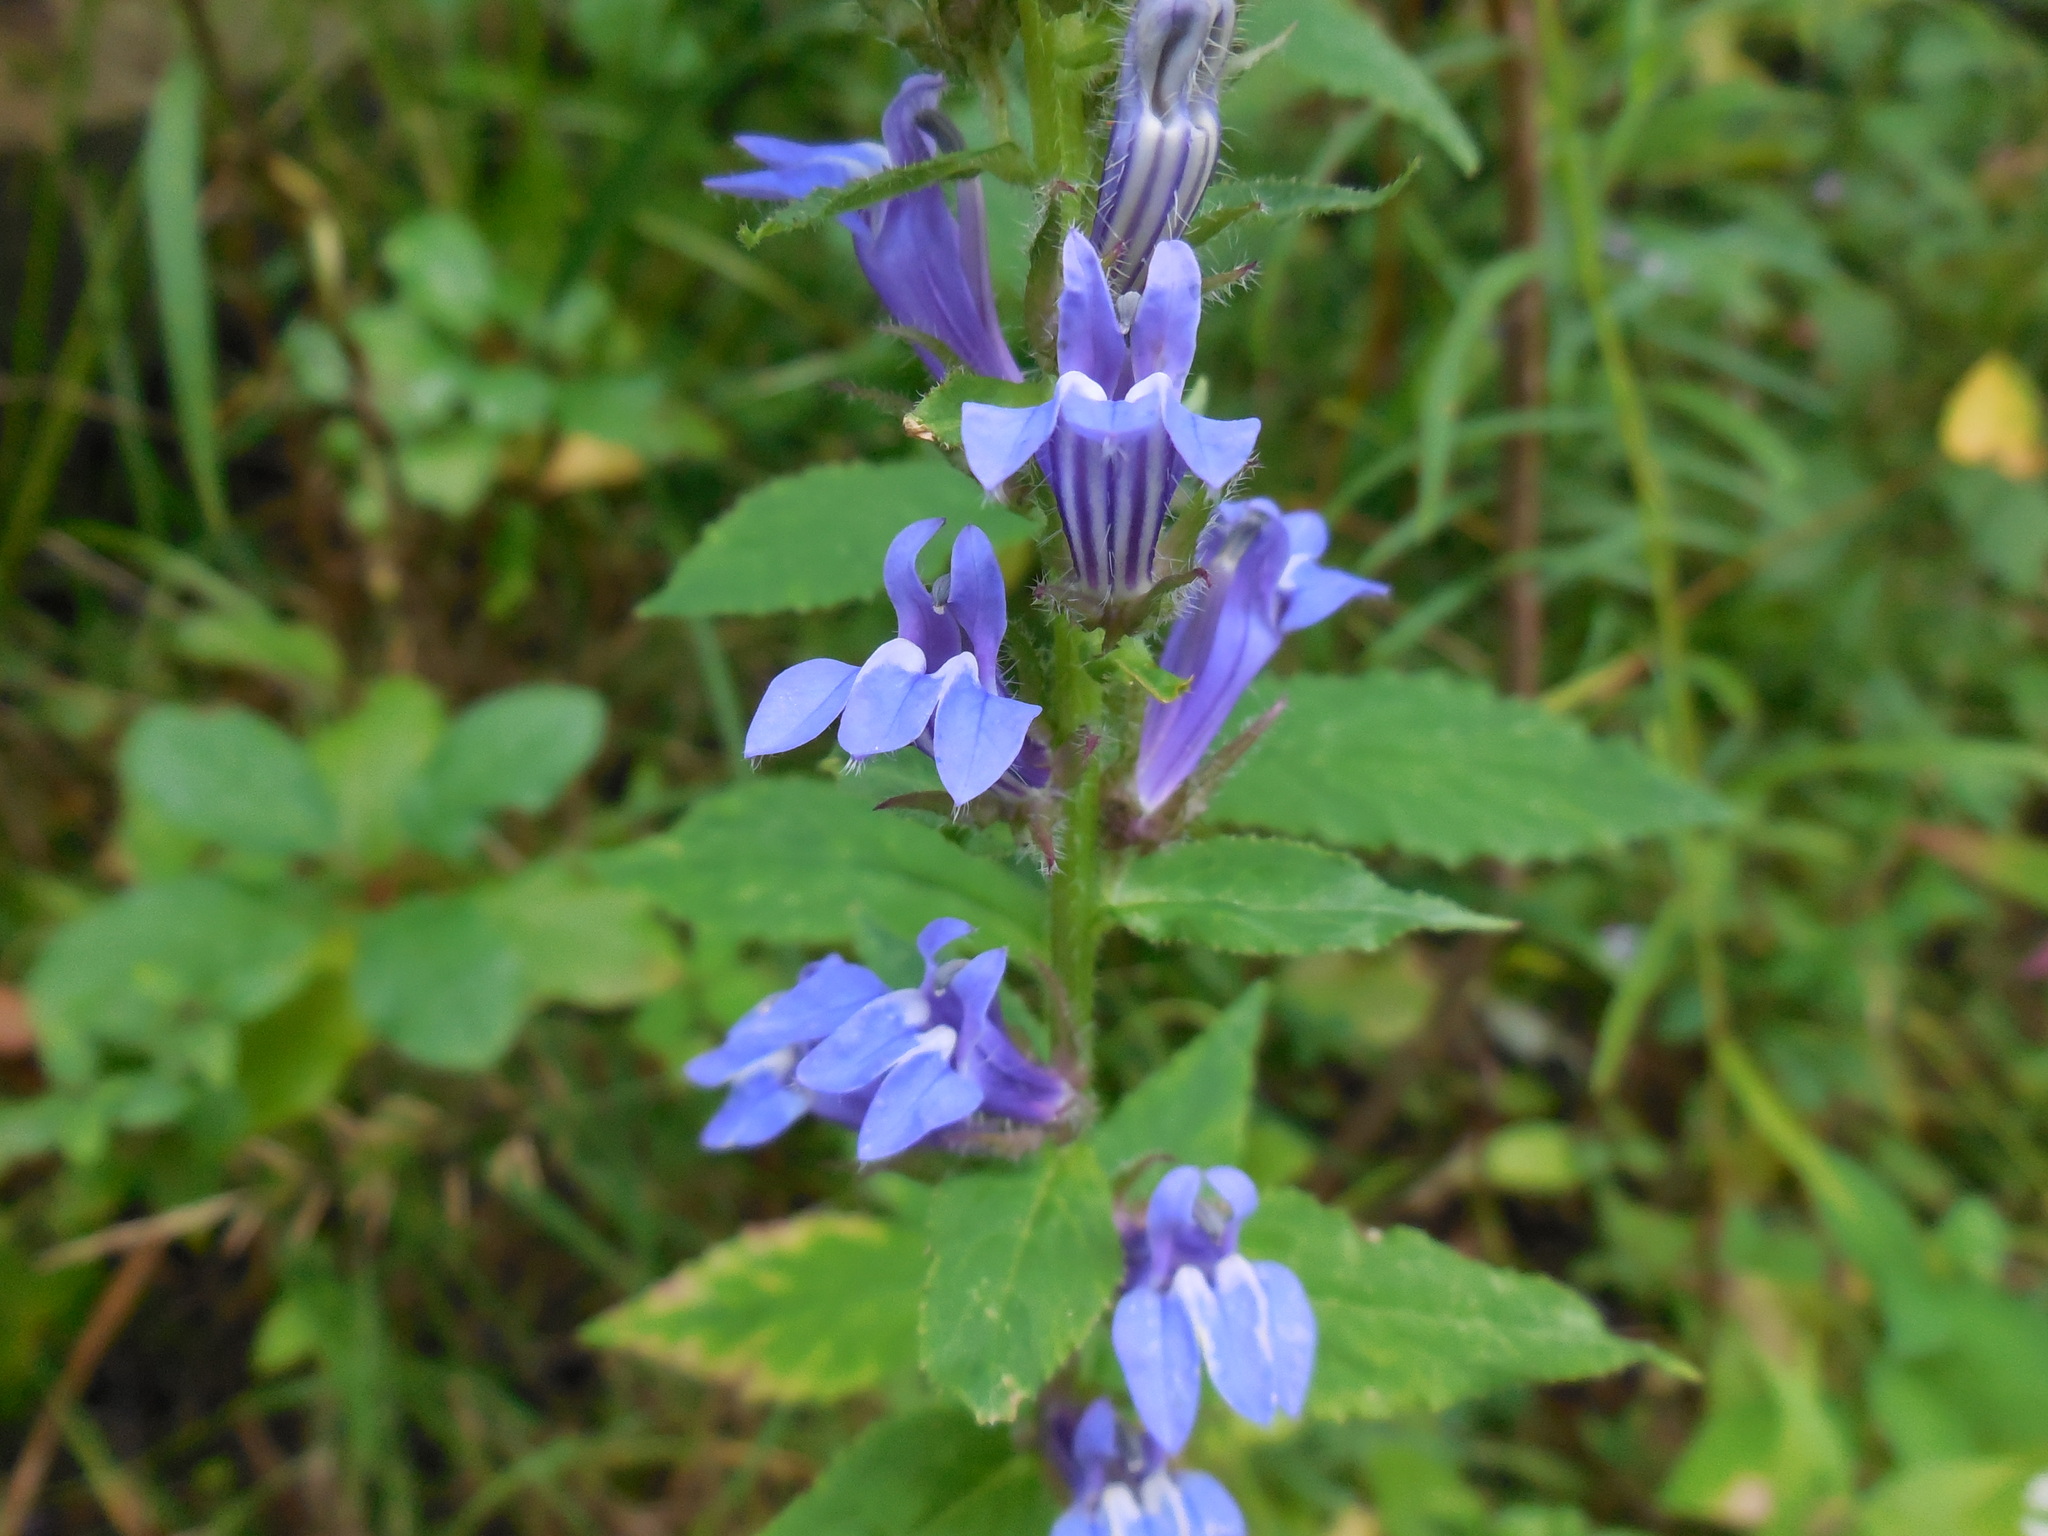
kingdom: Plantae
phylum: Tracheophyta
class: Magnoliopsida
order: Asterales
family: Campanulaceae
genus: Lobelia
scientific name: Lobelia siphilitica
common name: Great lobelia
